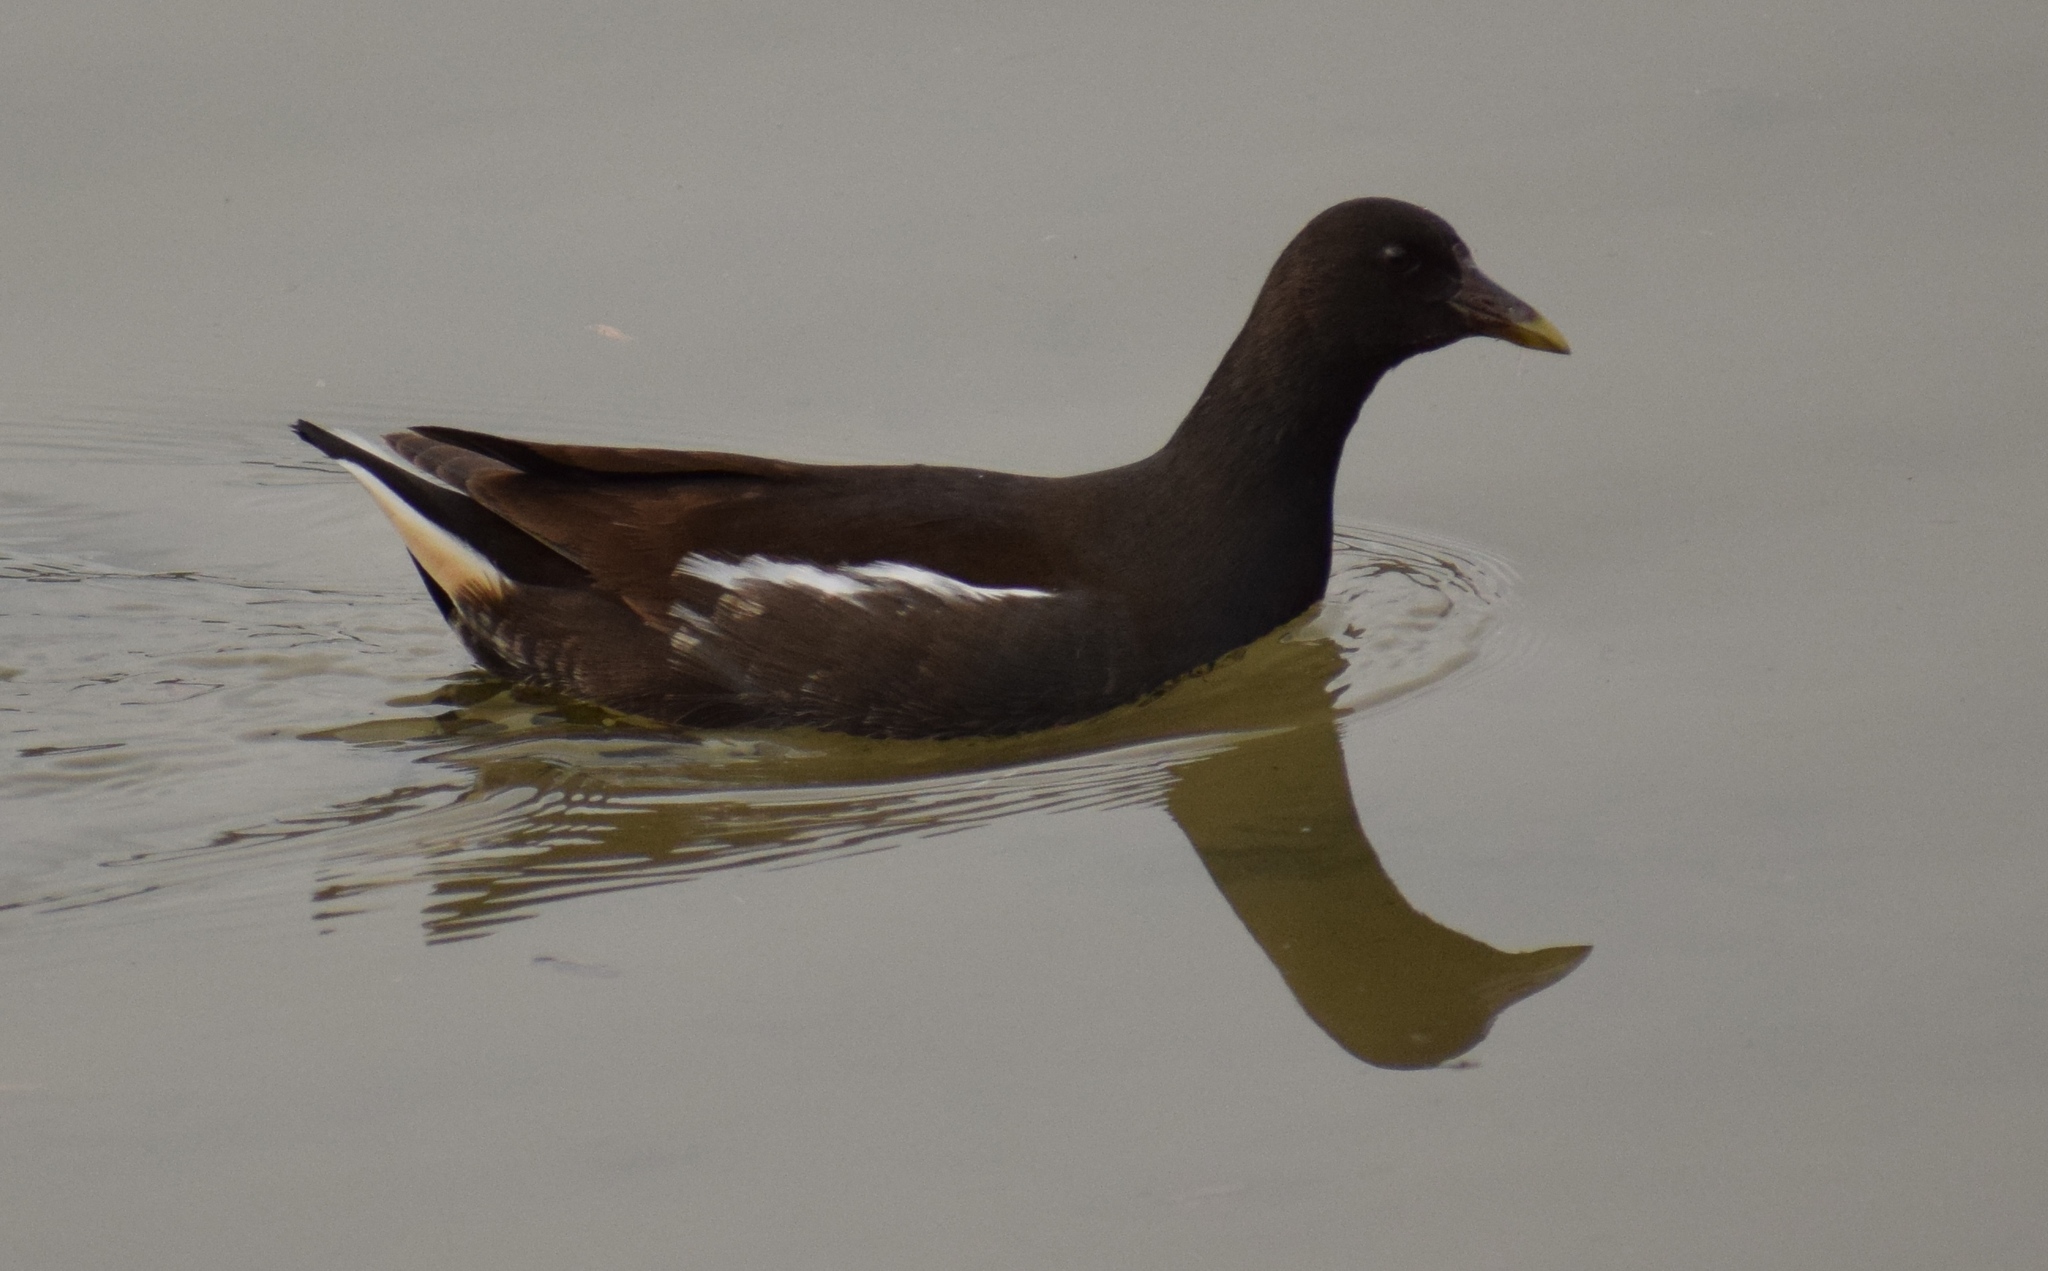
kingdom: Animalia
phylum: Chordata
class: Aves
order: Gruiformes
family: Rallidae
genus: Gallinula
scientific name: Gallinula chloropus
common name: Common moorhen
